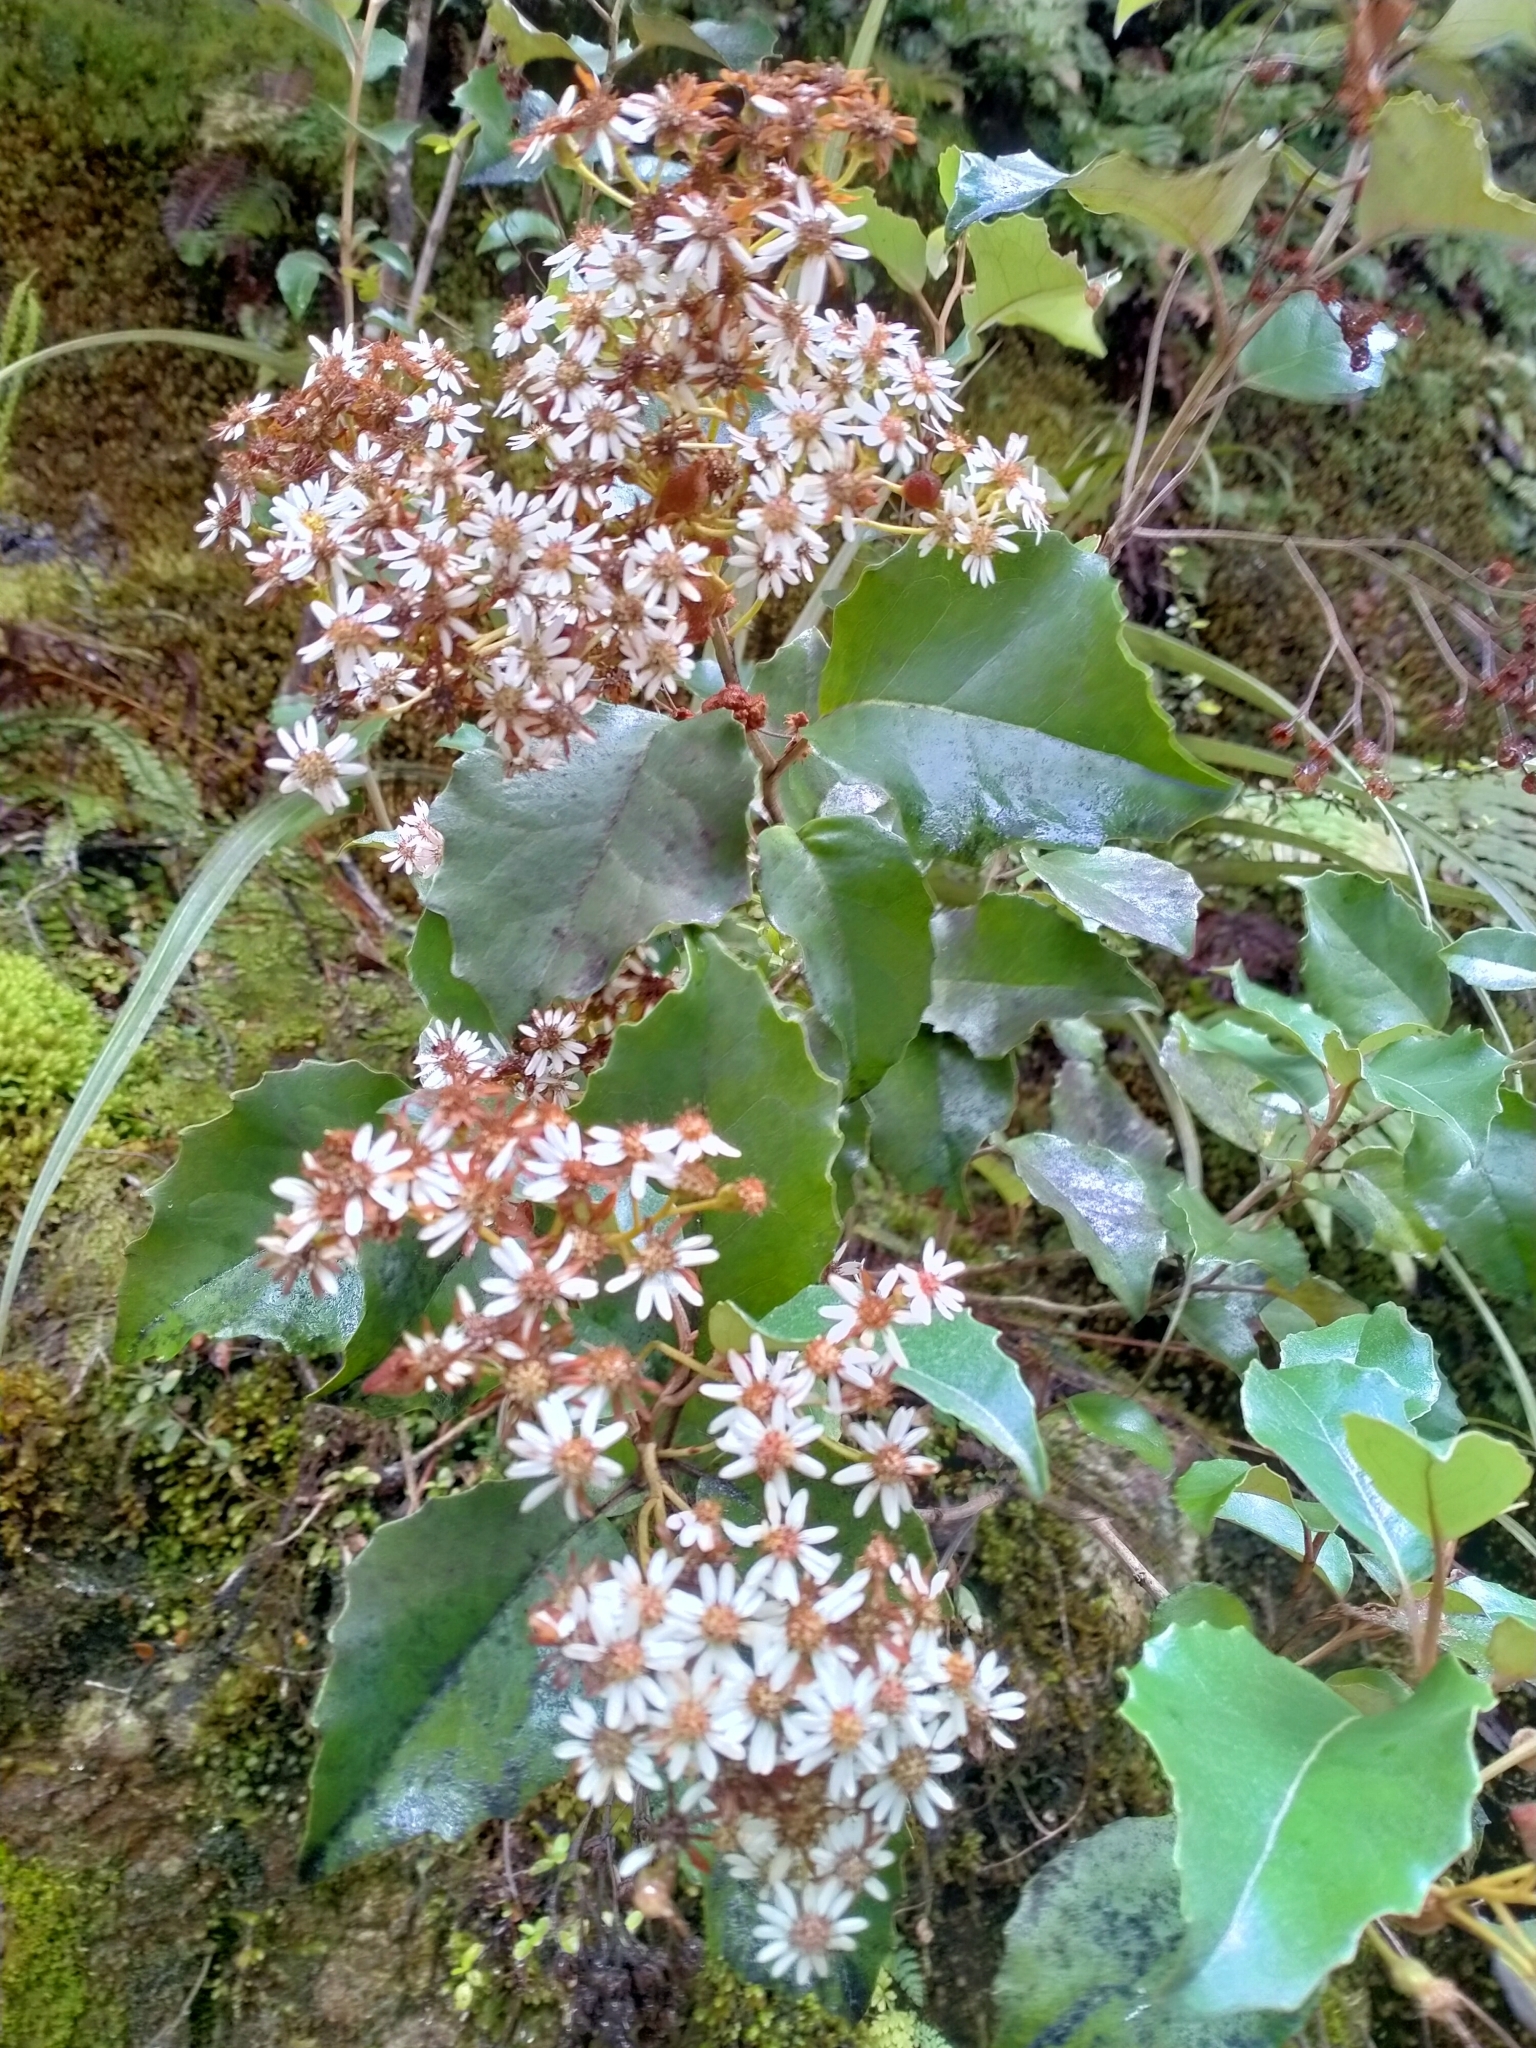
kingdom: Plantae
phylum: Tracheophyta
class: Magnoliopsida
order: Asterales
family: Asteraceae
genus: Olearia
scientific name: Olearia arborescens
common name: Glossy tree daisy
